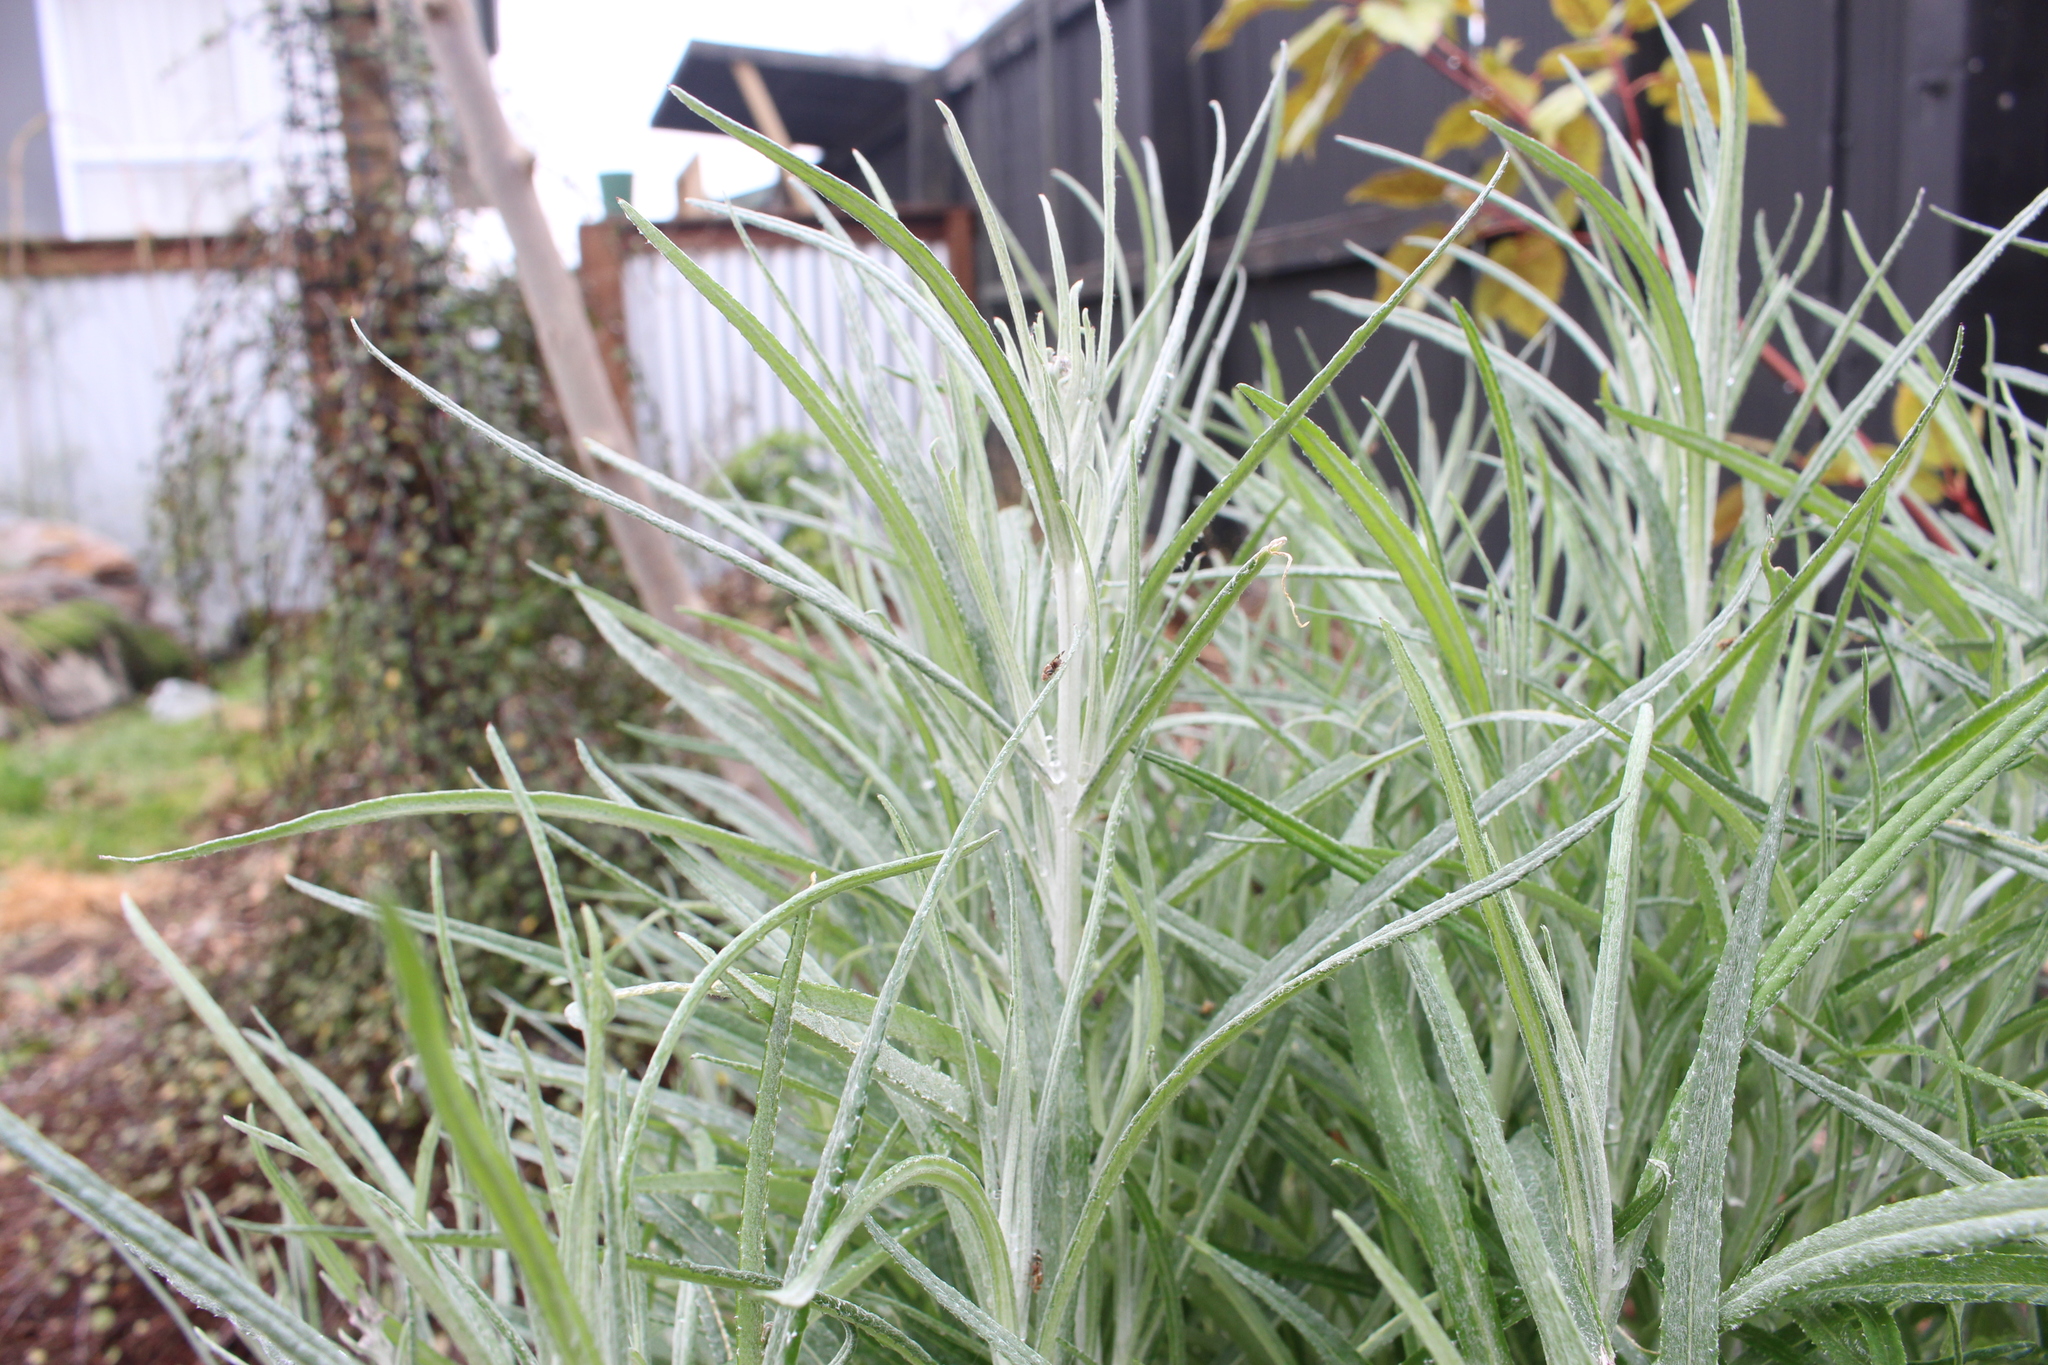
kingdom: Plantae
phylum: Tracheophyta
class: Magnoliopsida
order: Asterales
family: Asteraceae
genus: Senecio
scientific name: Senecio quadridentatus
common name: Cotton fireweed
